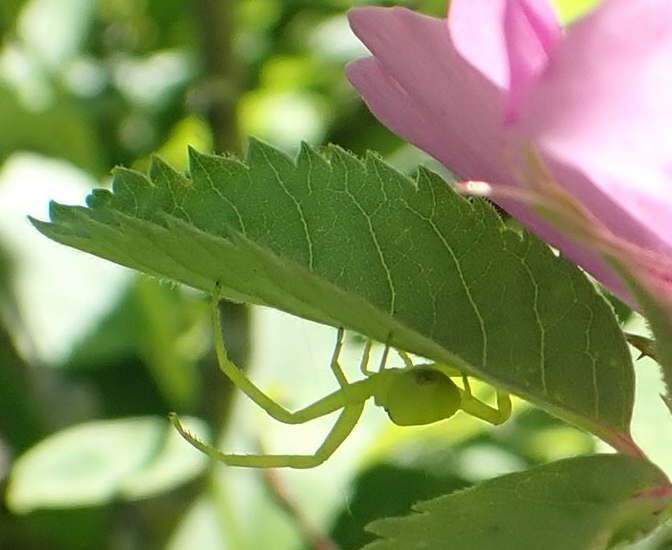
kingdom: Animalia
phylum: Arthropoda
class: Arachnida
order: Araneae
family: Thomisidae
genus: Misumena
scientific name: Misumena vatia
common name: Goldenrod crab spider
